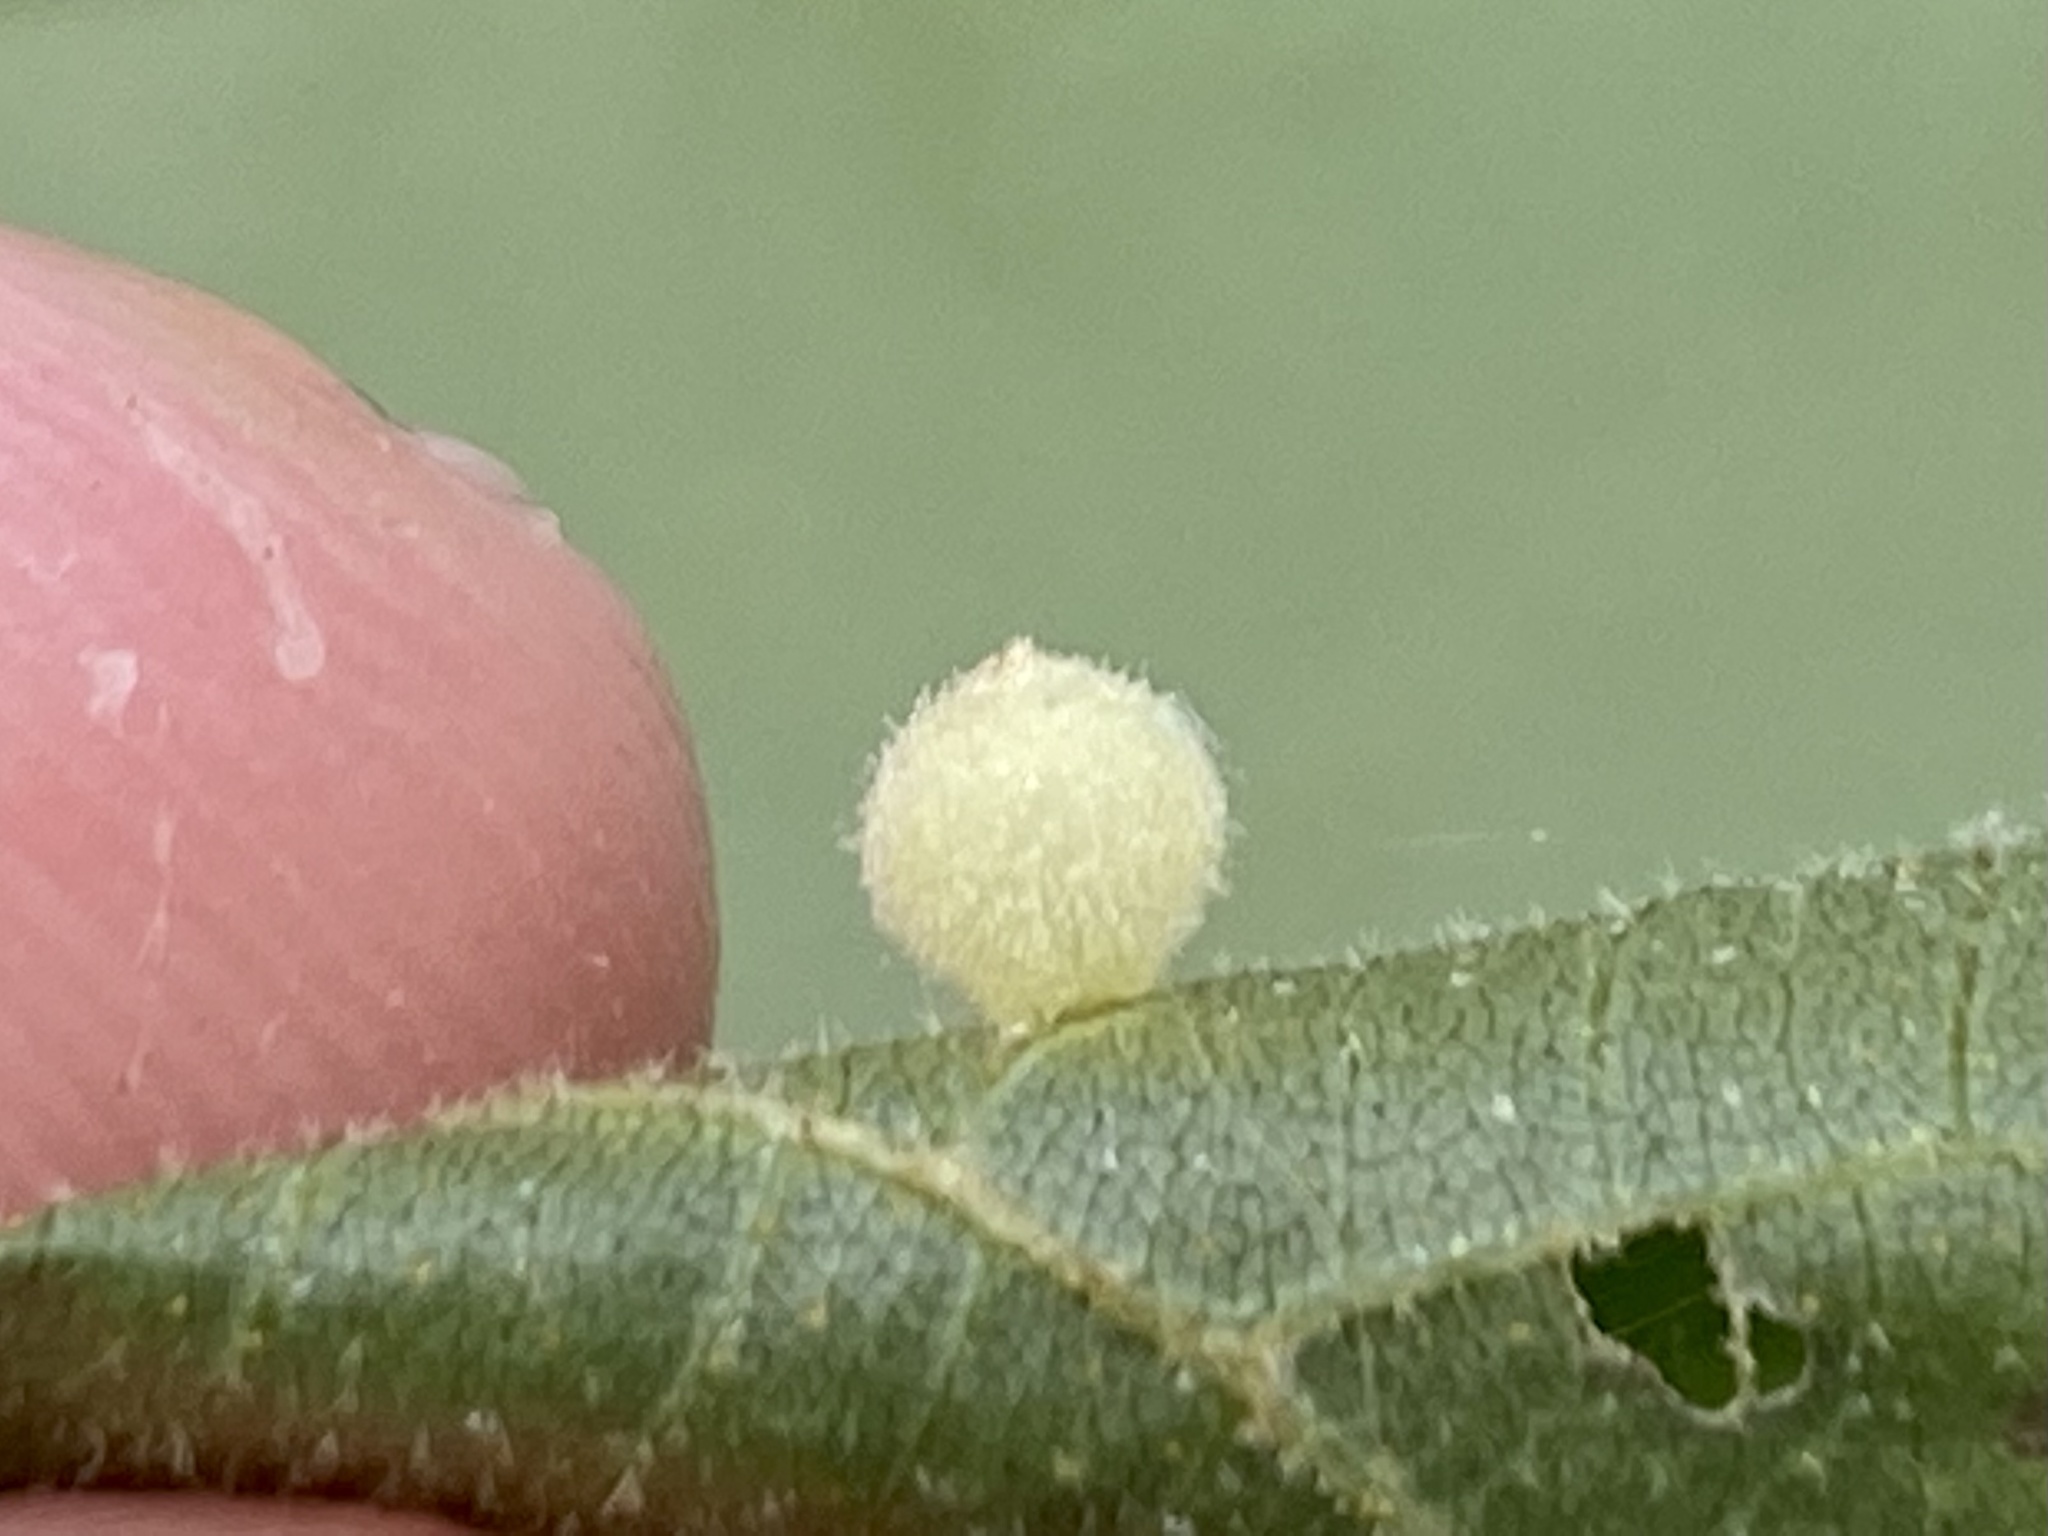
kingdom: Animalia
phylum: Arthropoda
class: Insecta
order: Diptera
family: Cecidomyiidae
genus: Caryomyia
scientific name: Caryomyia hirtidolium
